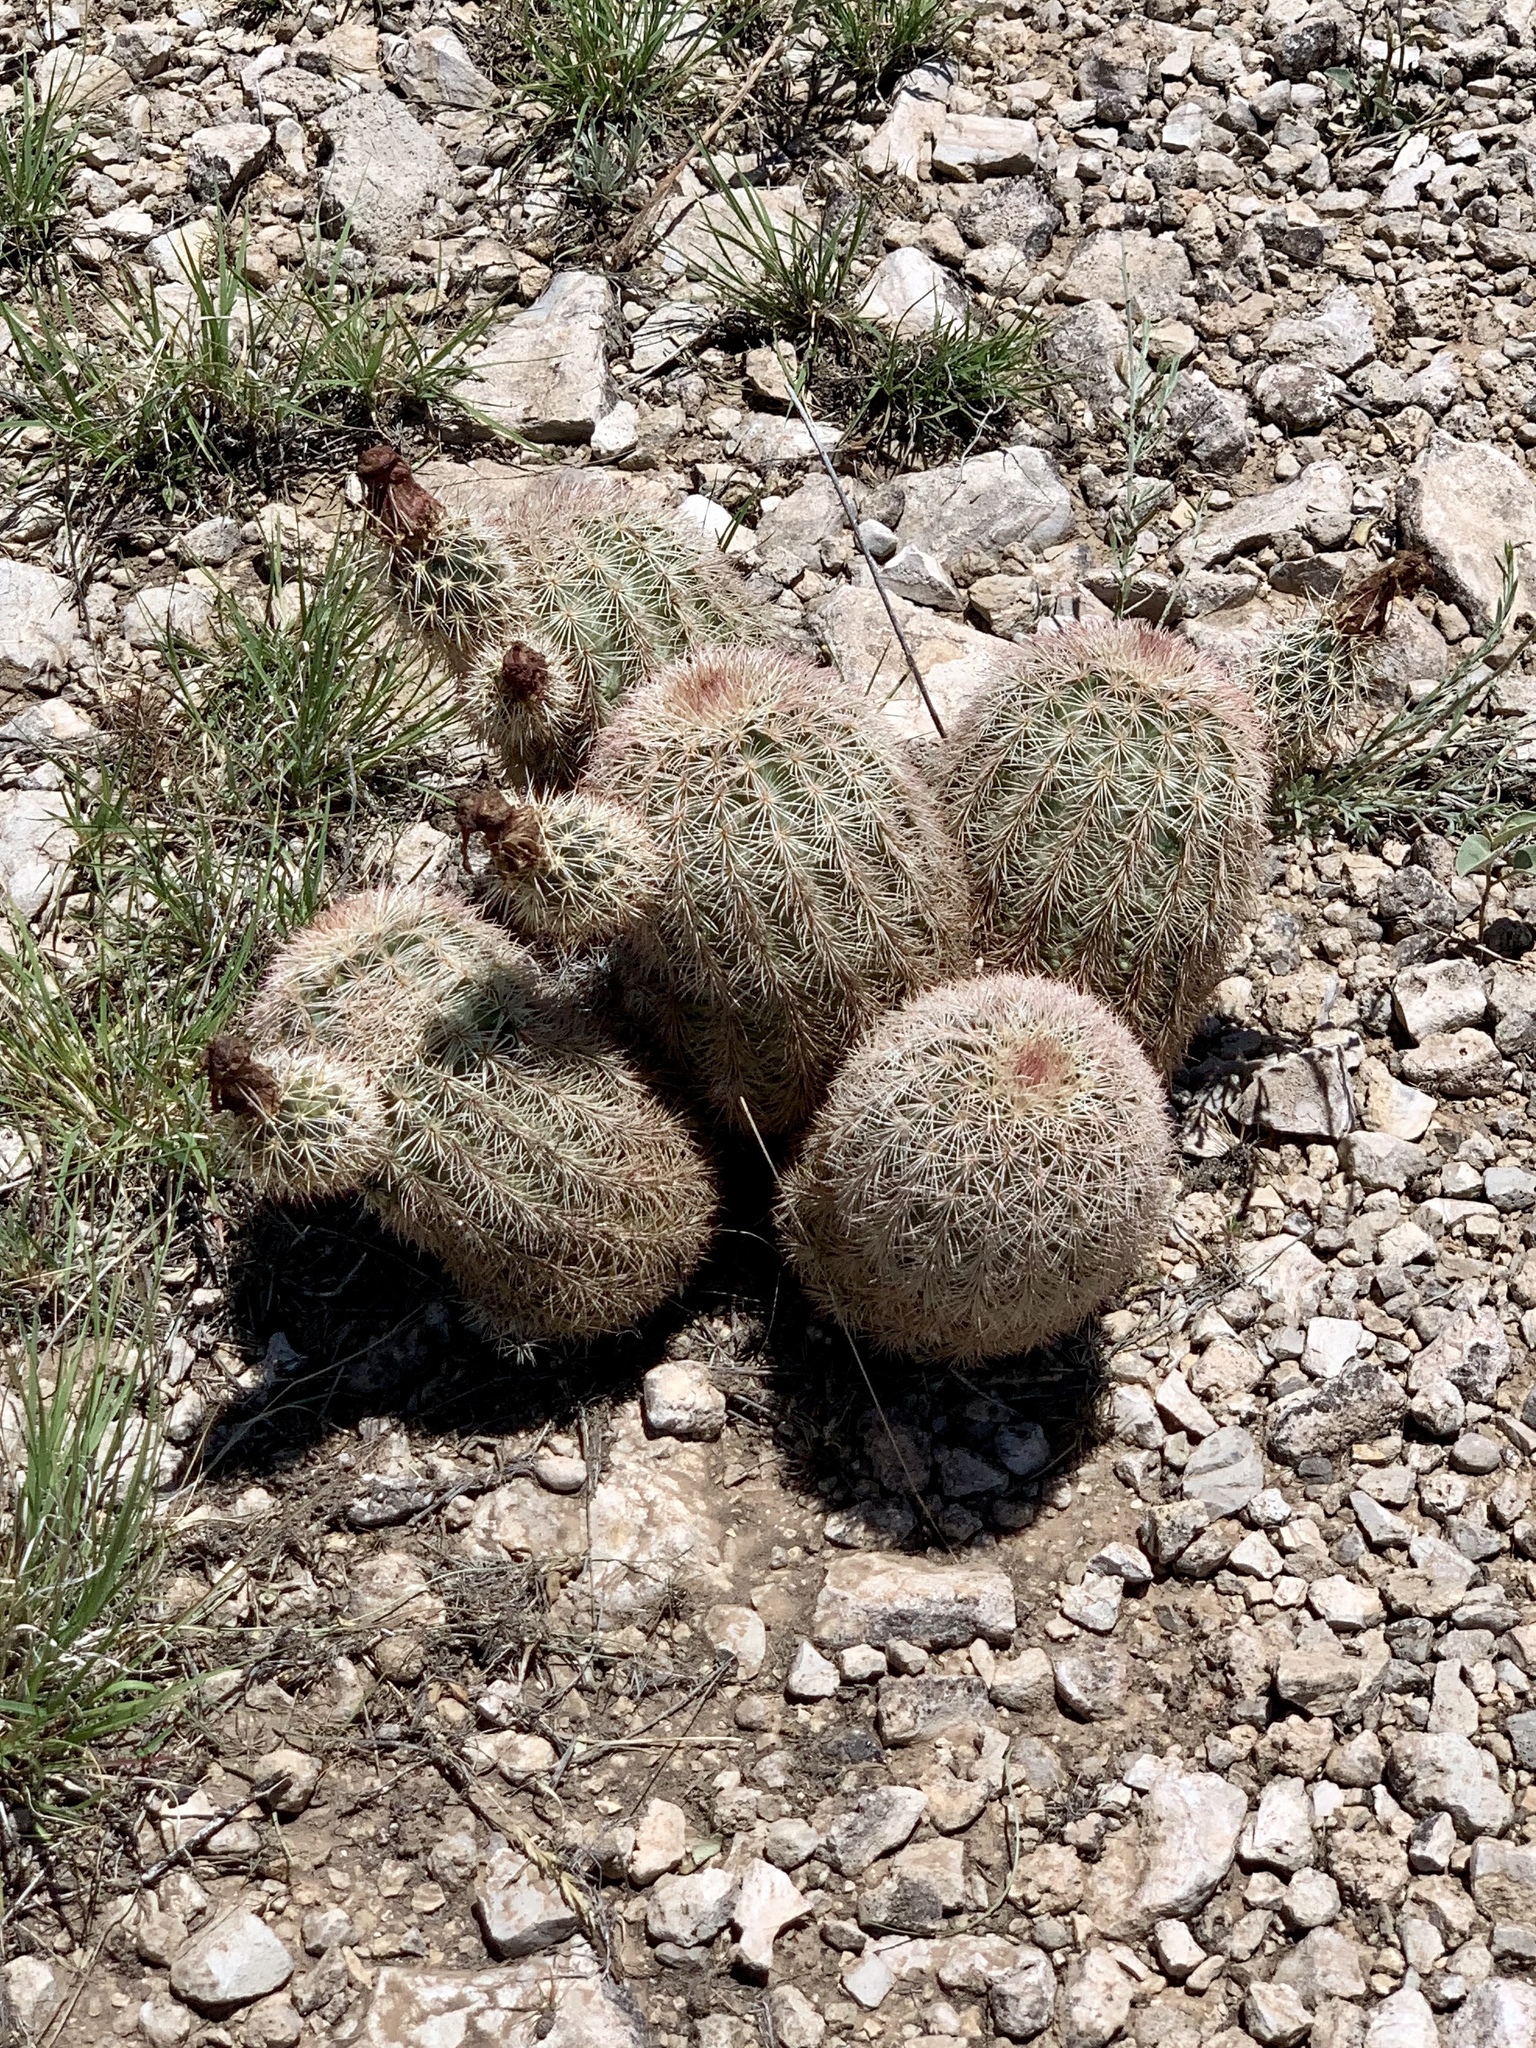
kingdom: Plantae
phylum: Tracheophyta
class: Magnoliopsida
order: Caryophyllales
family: Cactaceae
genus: Echinocereus
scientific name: Echinocereus dasyacanthus
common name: Spiny hedgehog cactus
